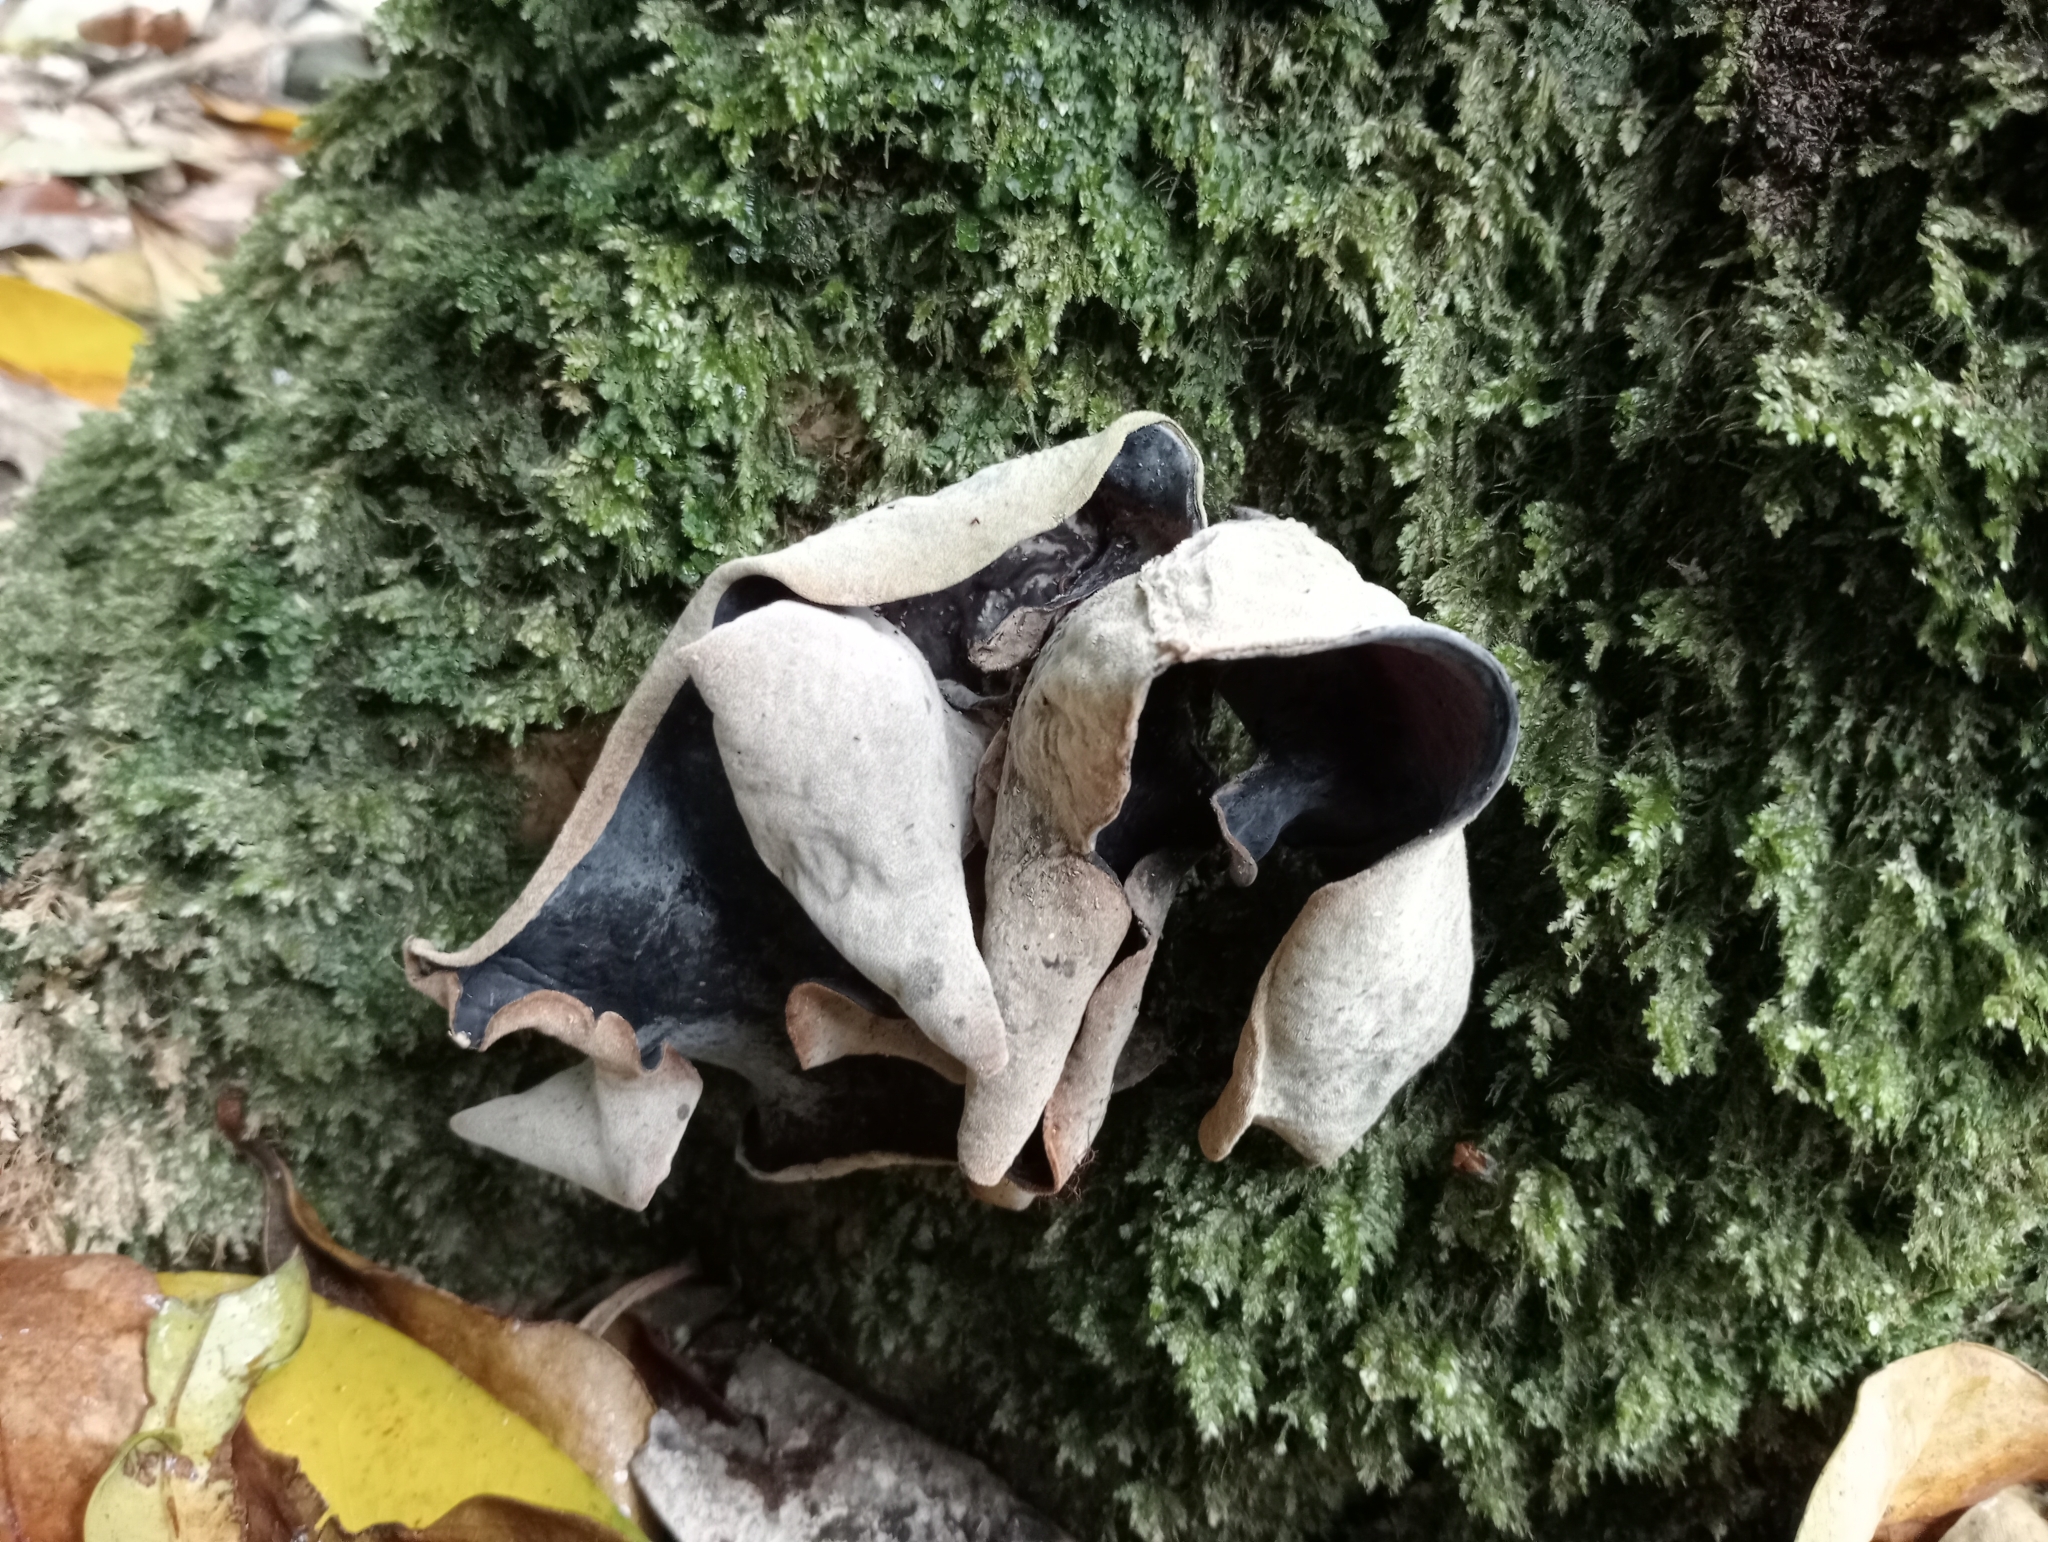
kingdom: Fungi
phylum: Basidiomycota
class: Agaricomycetes
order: Auriculariales
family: Auriculariaceae
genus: Auricularia
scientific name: Auricularia cornea
